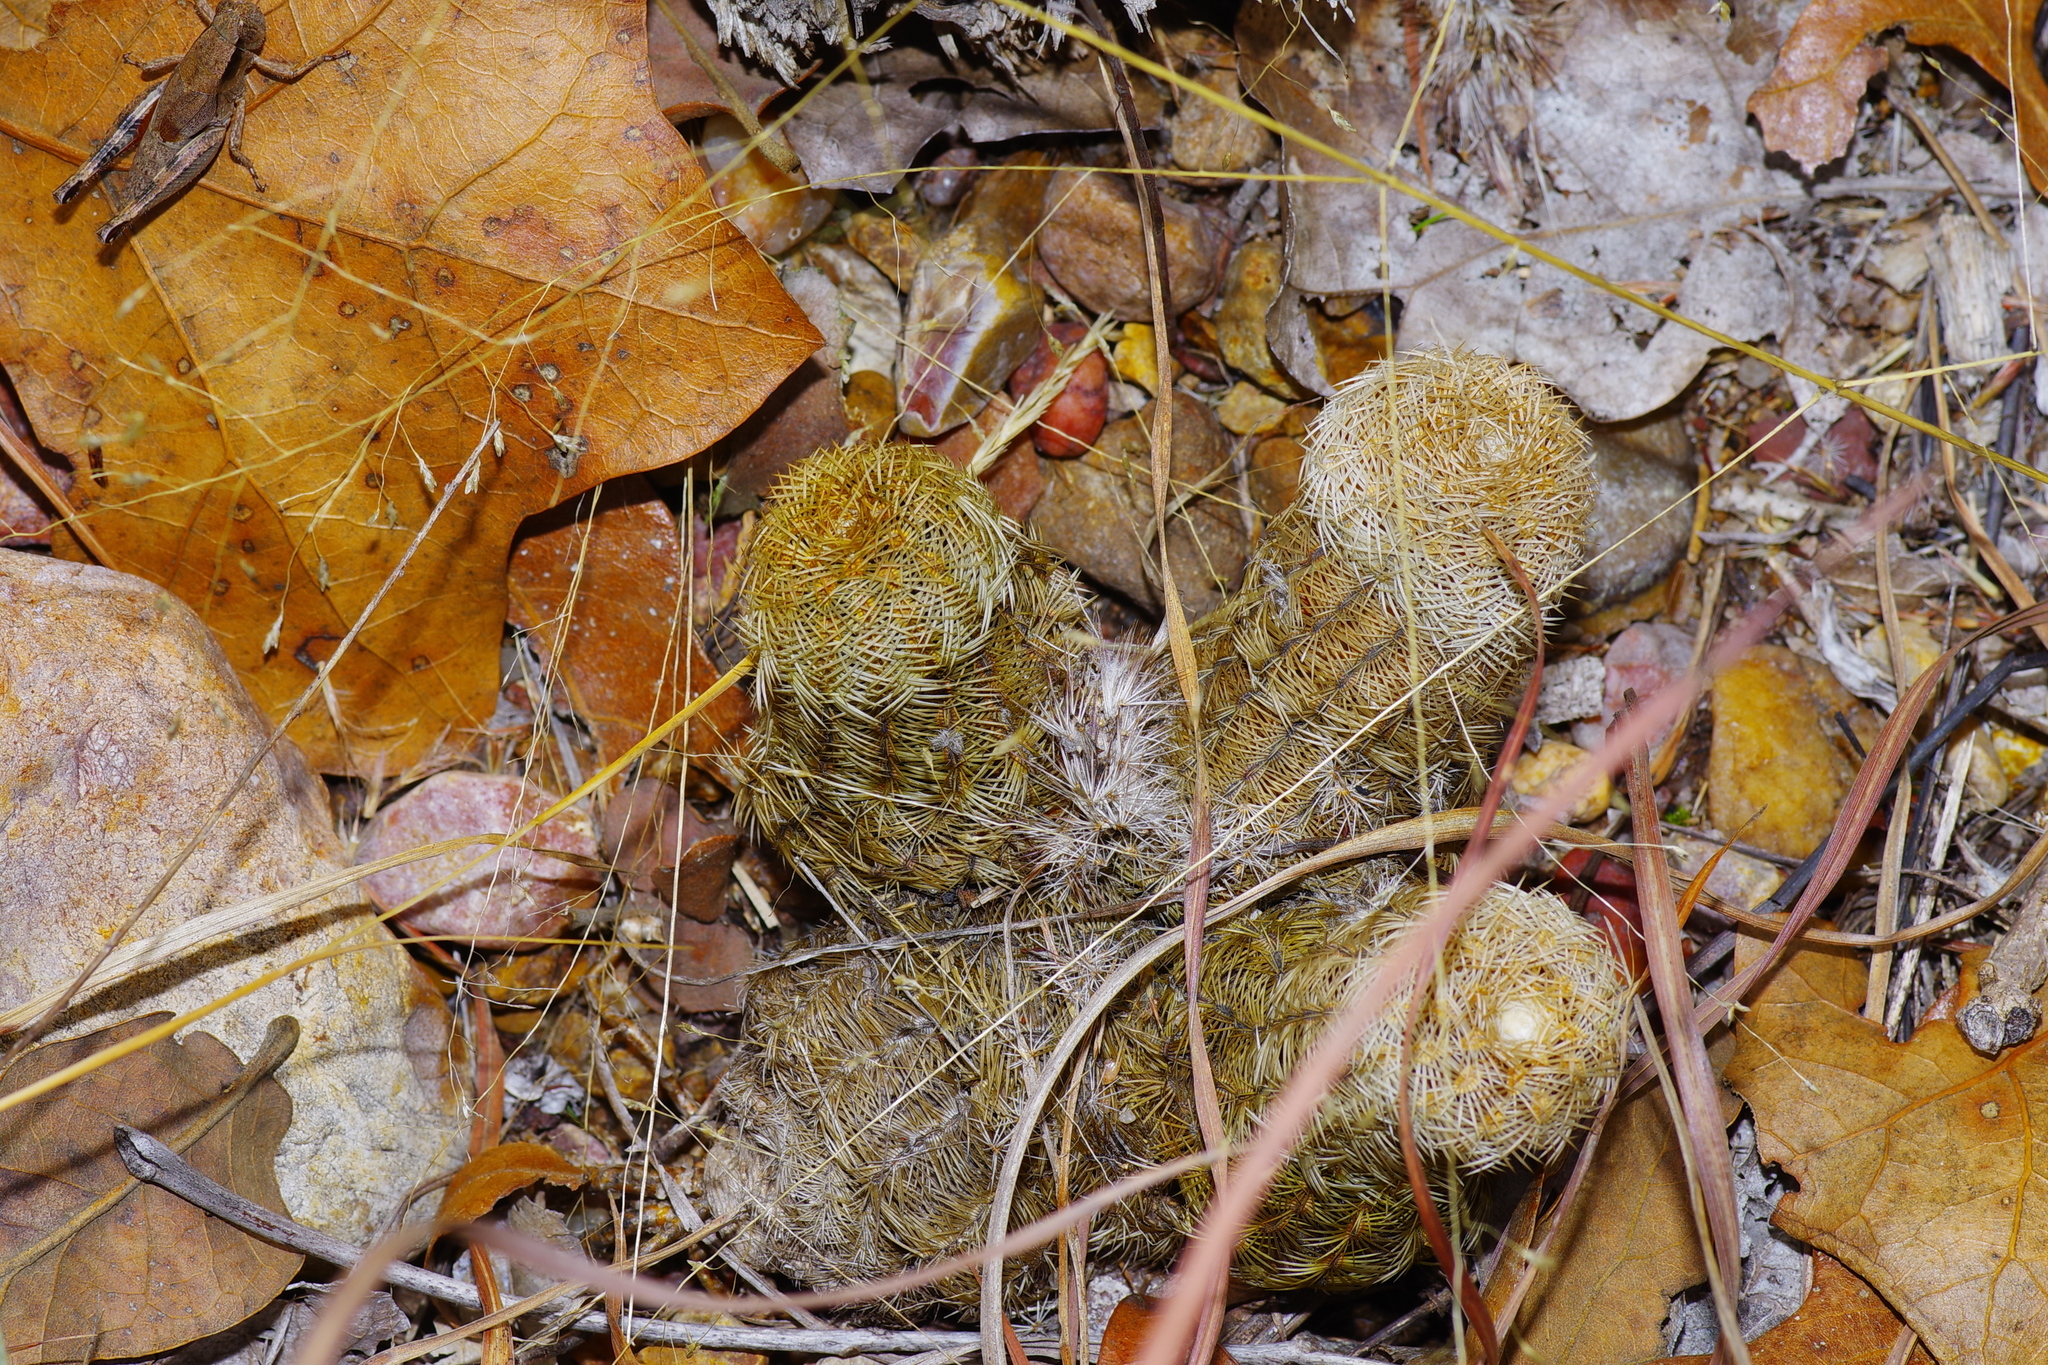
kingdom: Plantae
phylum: Tracheophyta
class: Magnoliopsida
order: Caryophyllales
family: Cactaceae
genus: Echinocereus
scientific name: Echinocereus reichenbachii
